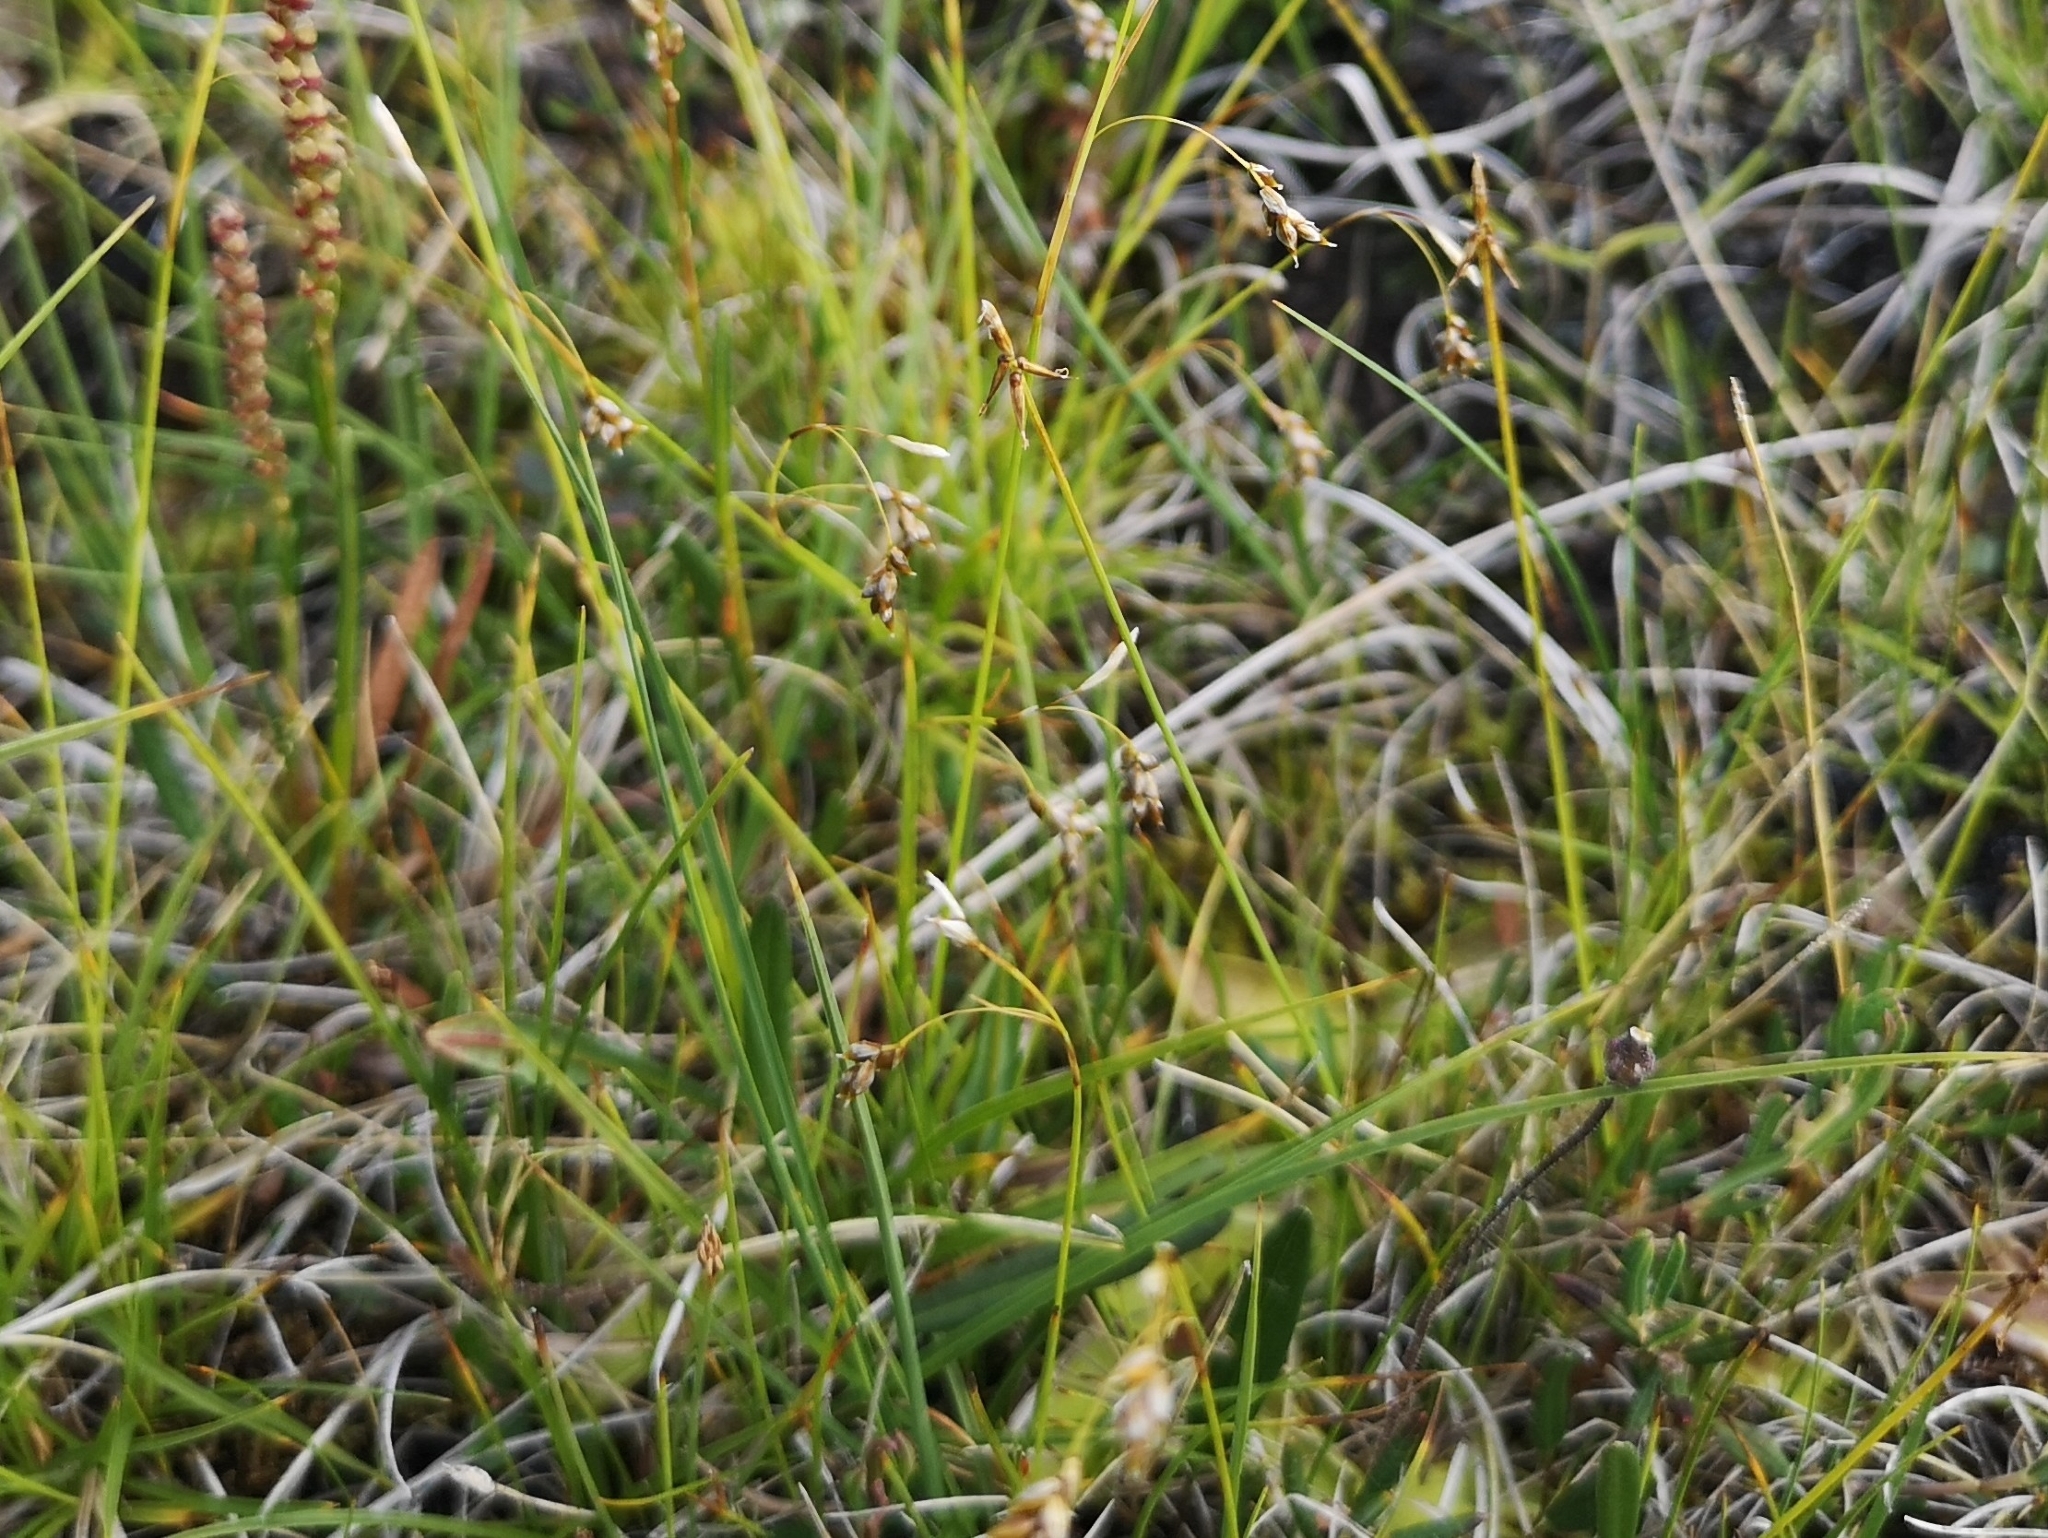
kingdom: Plantae
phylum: Tracheophyta
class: Liliopsida
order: Poales
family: Cyperaceae
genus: Carex
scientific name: Carex pauciflora
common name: Few-flowered sedge
